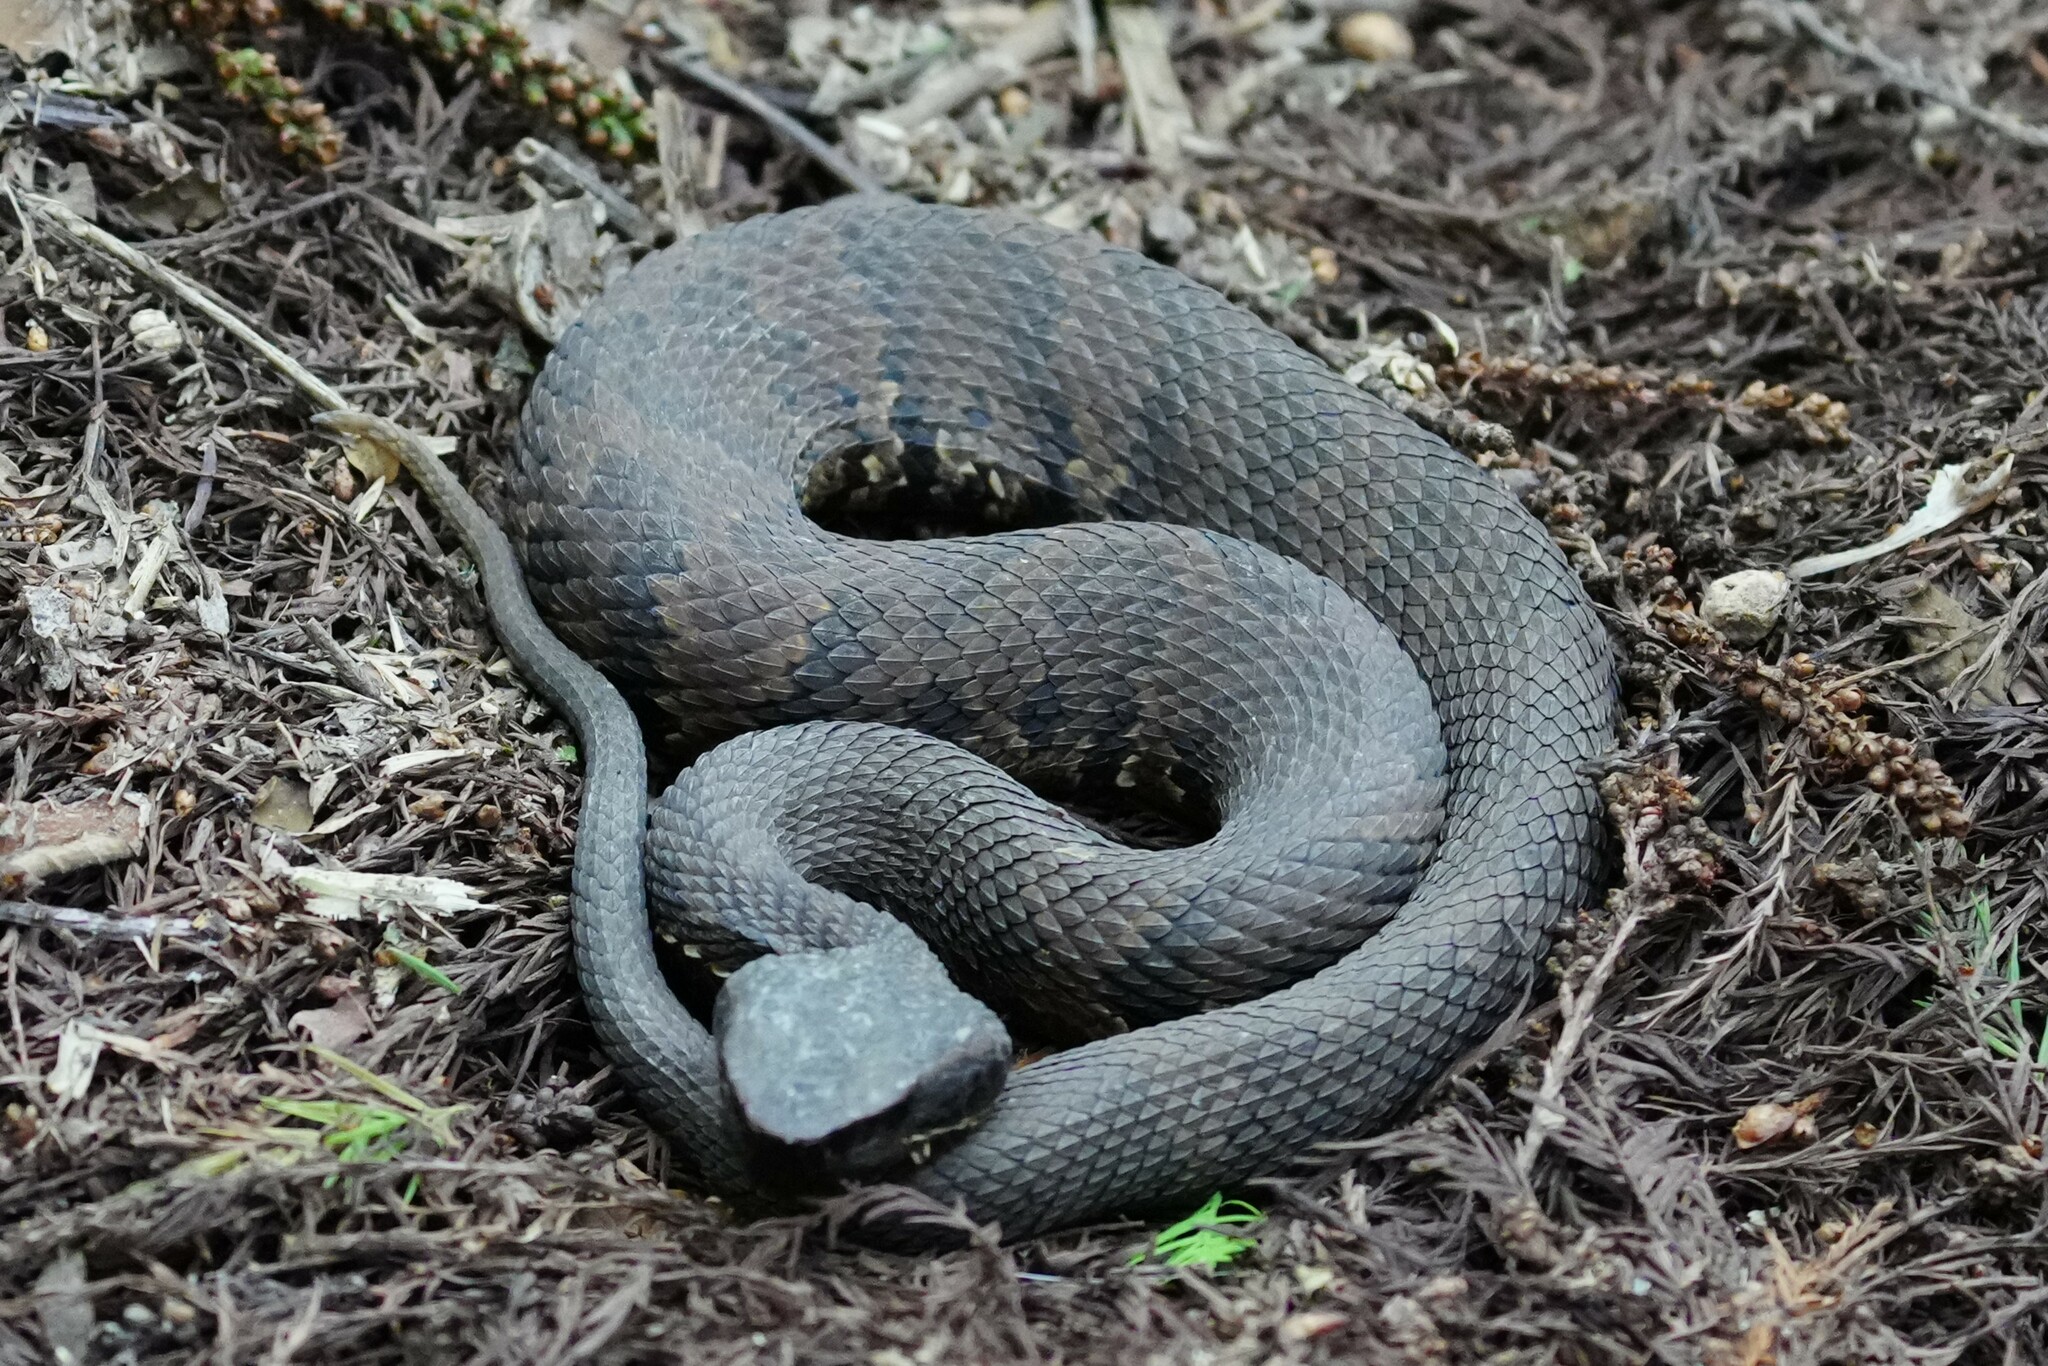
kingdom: Animalia
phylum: Chordata
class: Squamata
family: Viperidae
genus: Agkistrodon
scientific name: Agkistrodon piscivorus
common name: Cottonmouth
